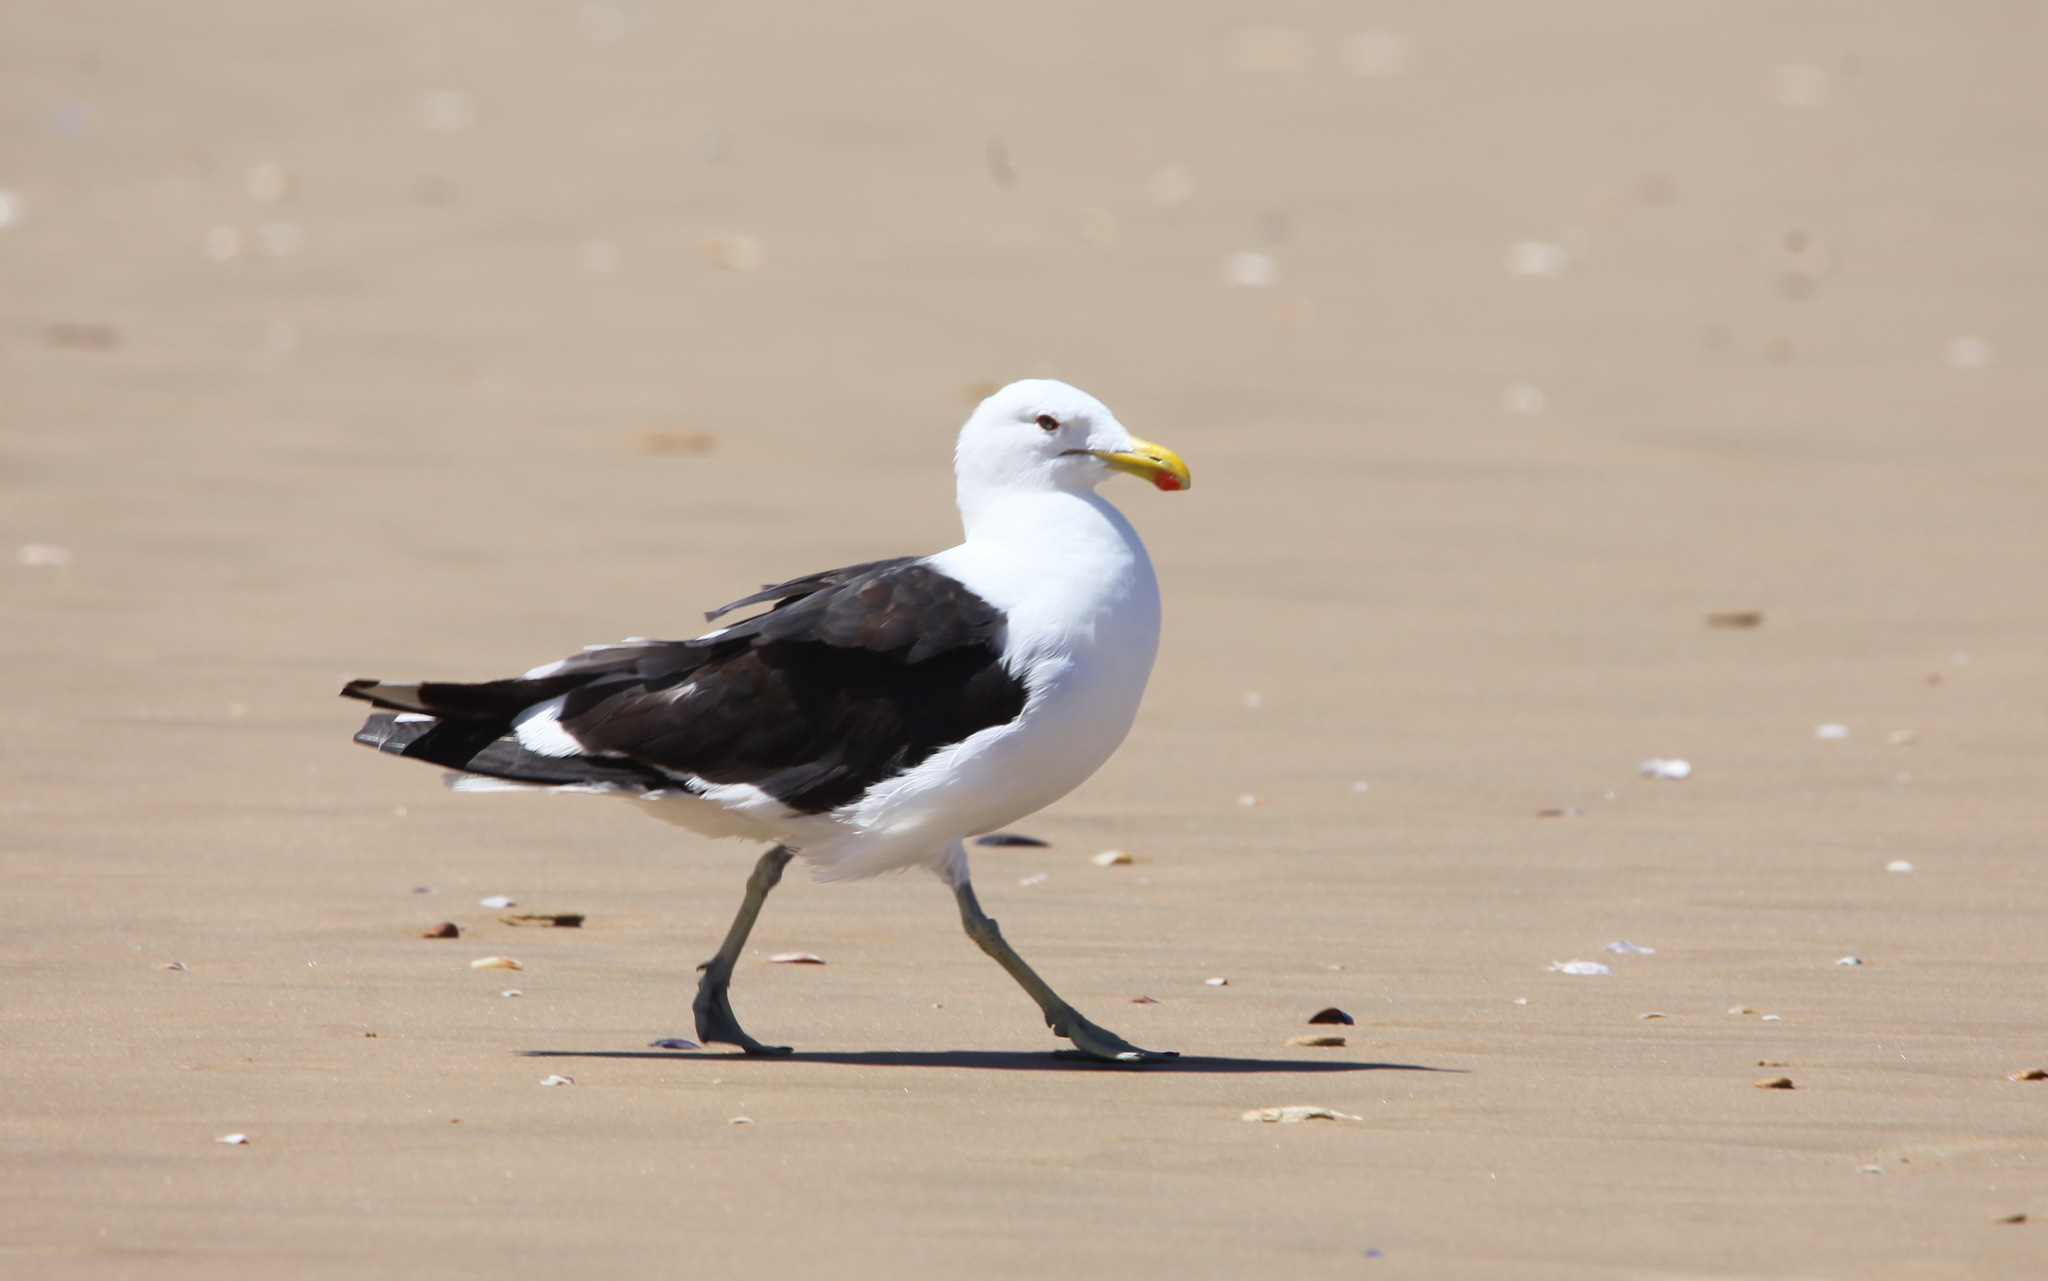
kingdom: Animalia
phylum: Chordata
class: Aves
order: Charadriiformes
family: Laridae
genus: Larus
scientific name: Larus dominicanus
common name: Kelp gull
